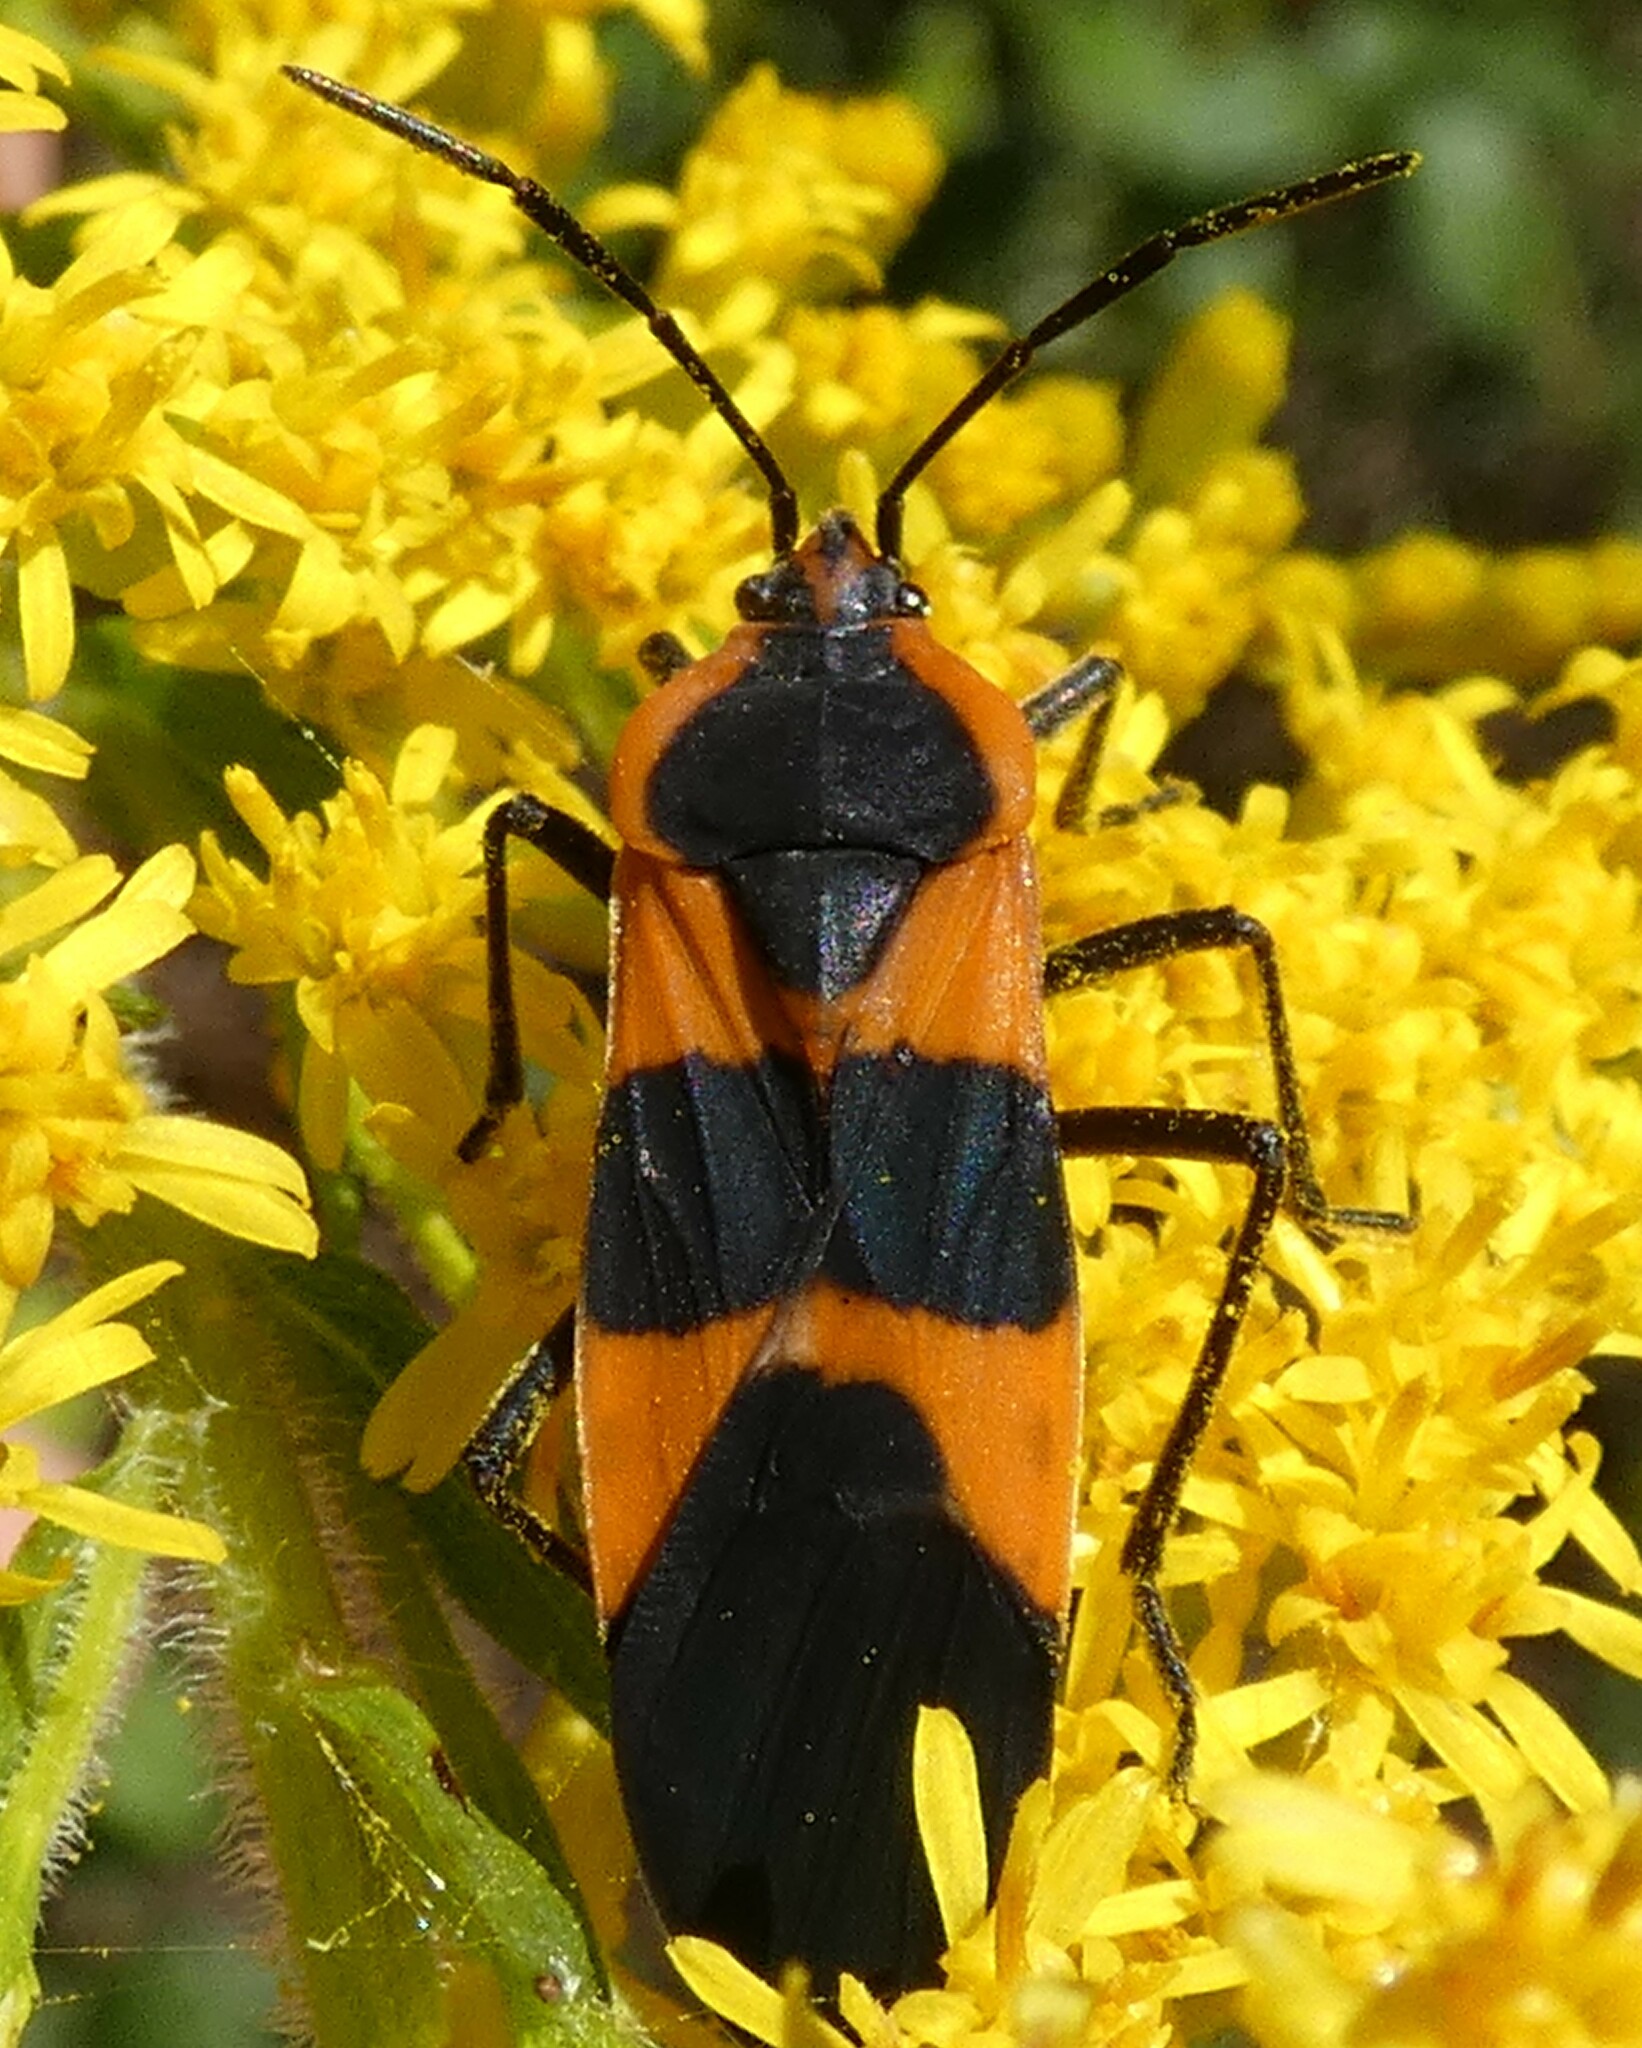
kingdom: Animalia
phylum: Arthropoda
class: Insecta
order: Hemiptera
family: Lygaeidae
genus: Oncopeltus
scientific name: Oncopeltus fasciatus
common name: Large milkweed bug
